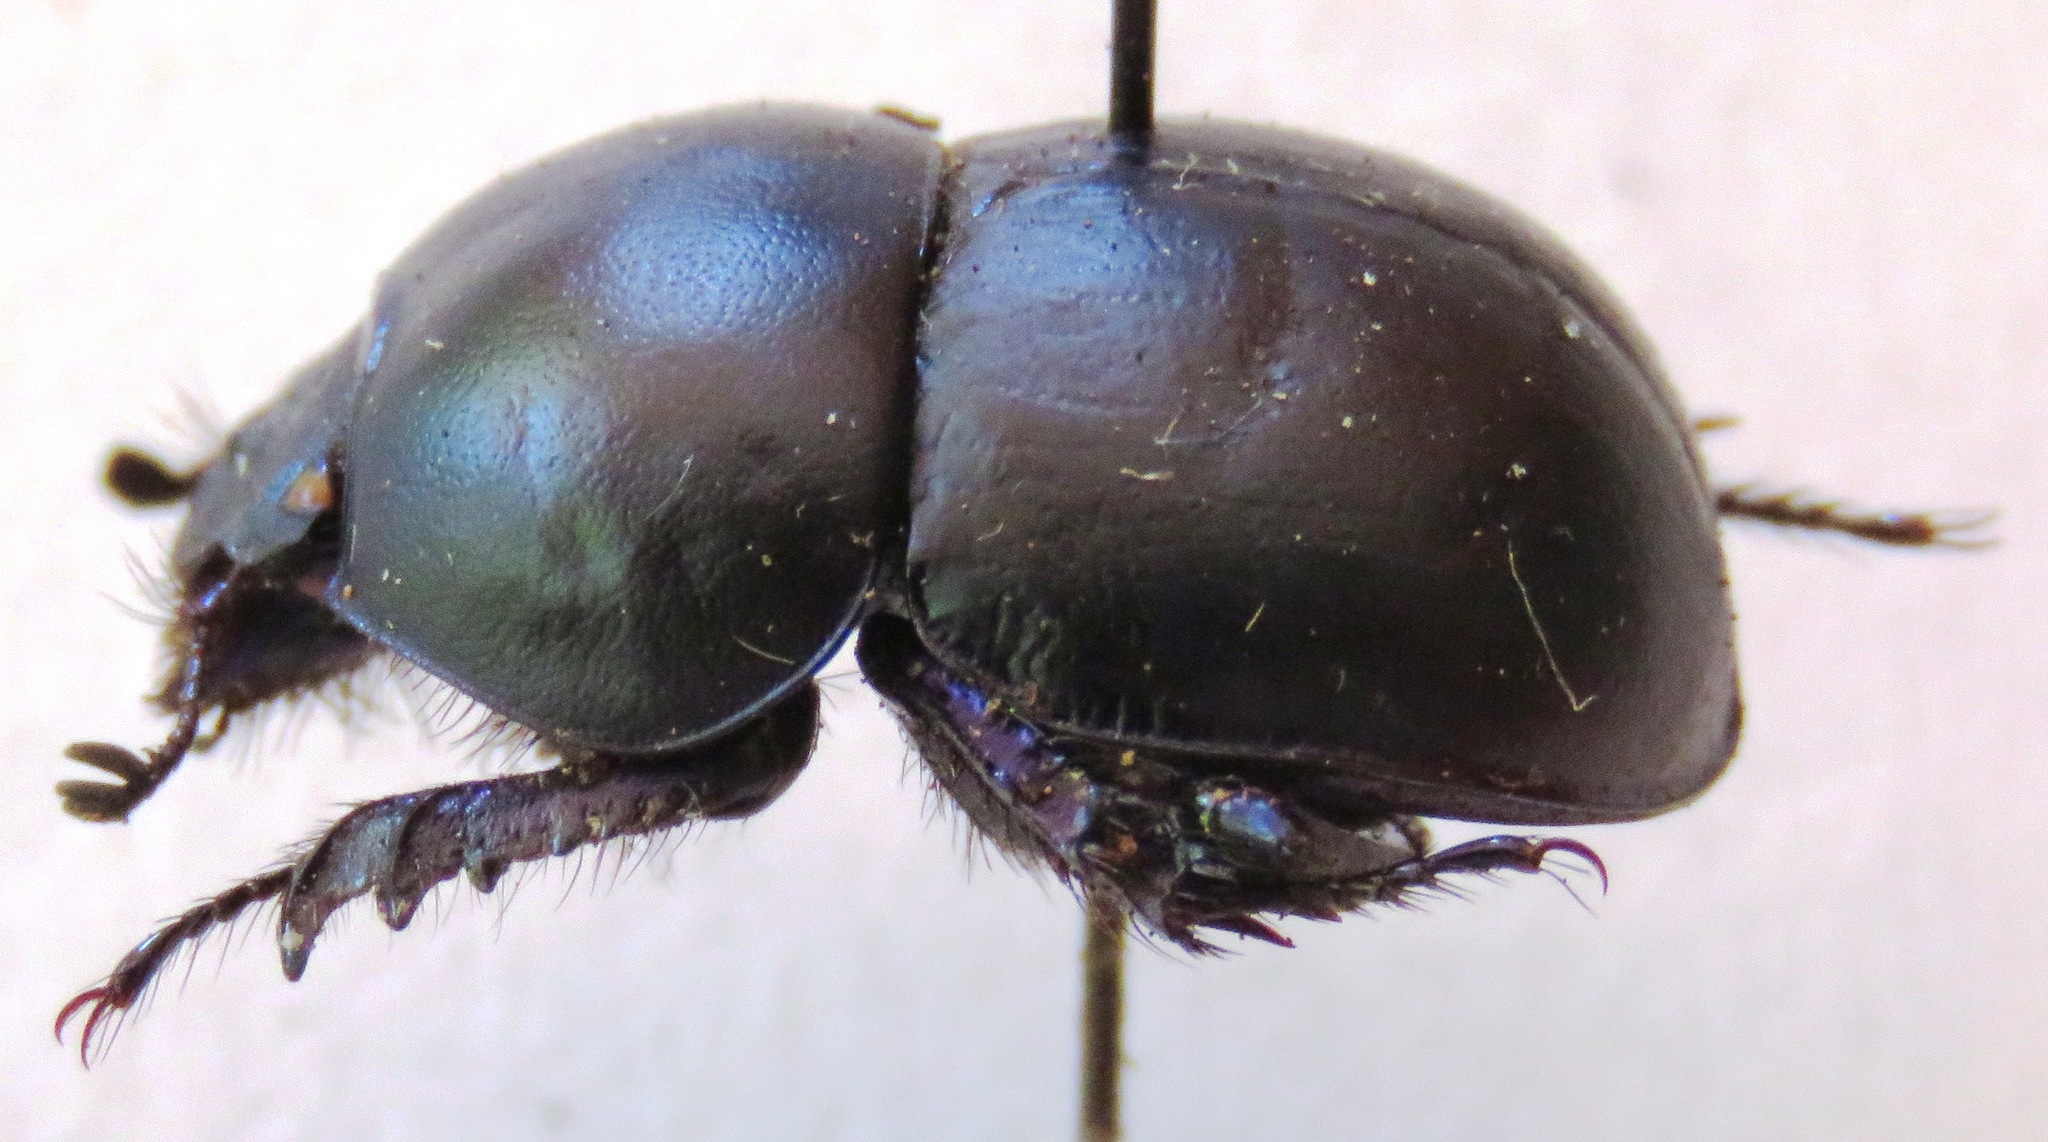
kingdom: Animalia
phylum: Arthropoda
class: Insecta
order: Coleoptera
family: Geotrupidae
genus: Jekelius
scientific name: Jekelius intermedius
